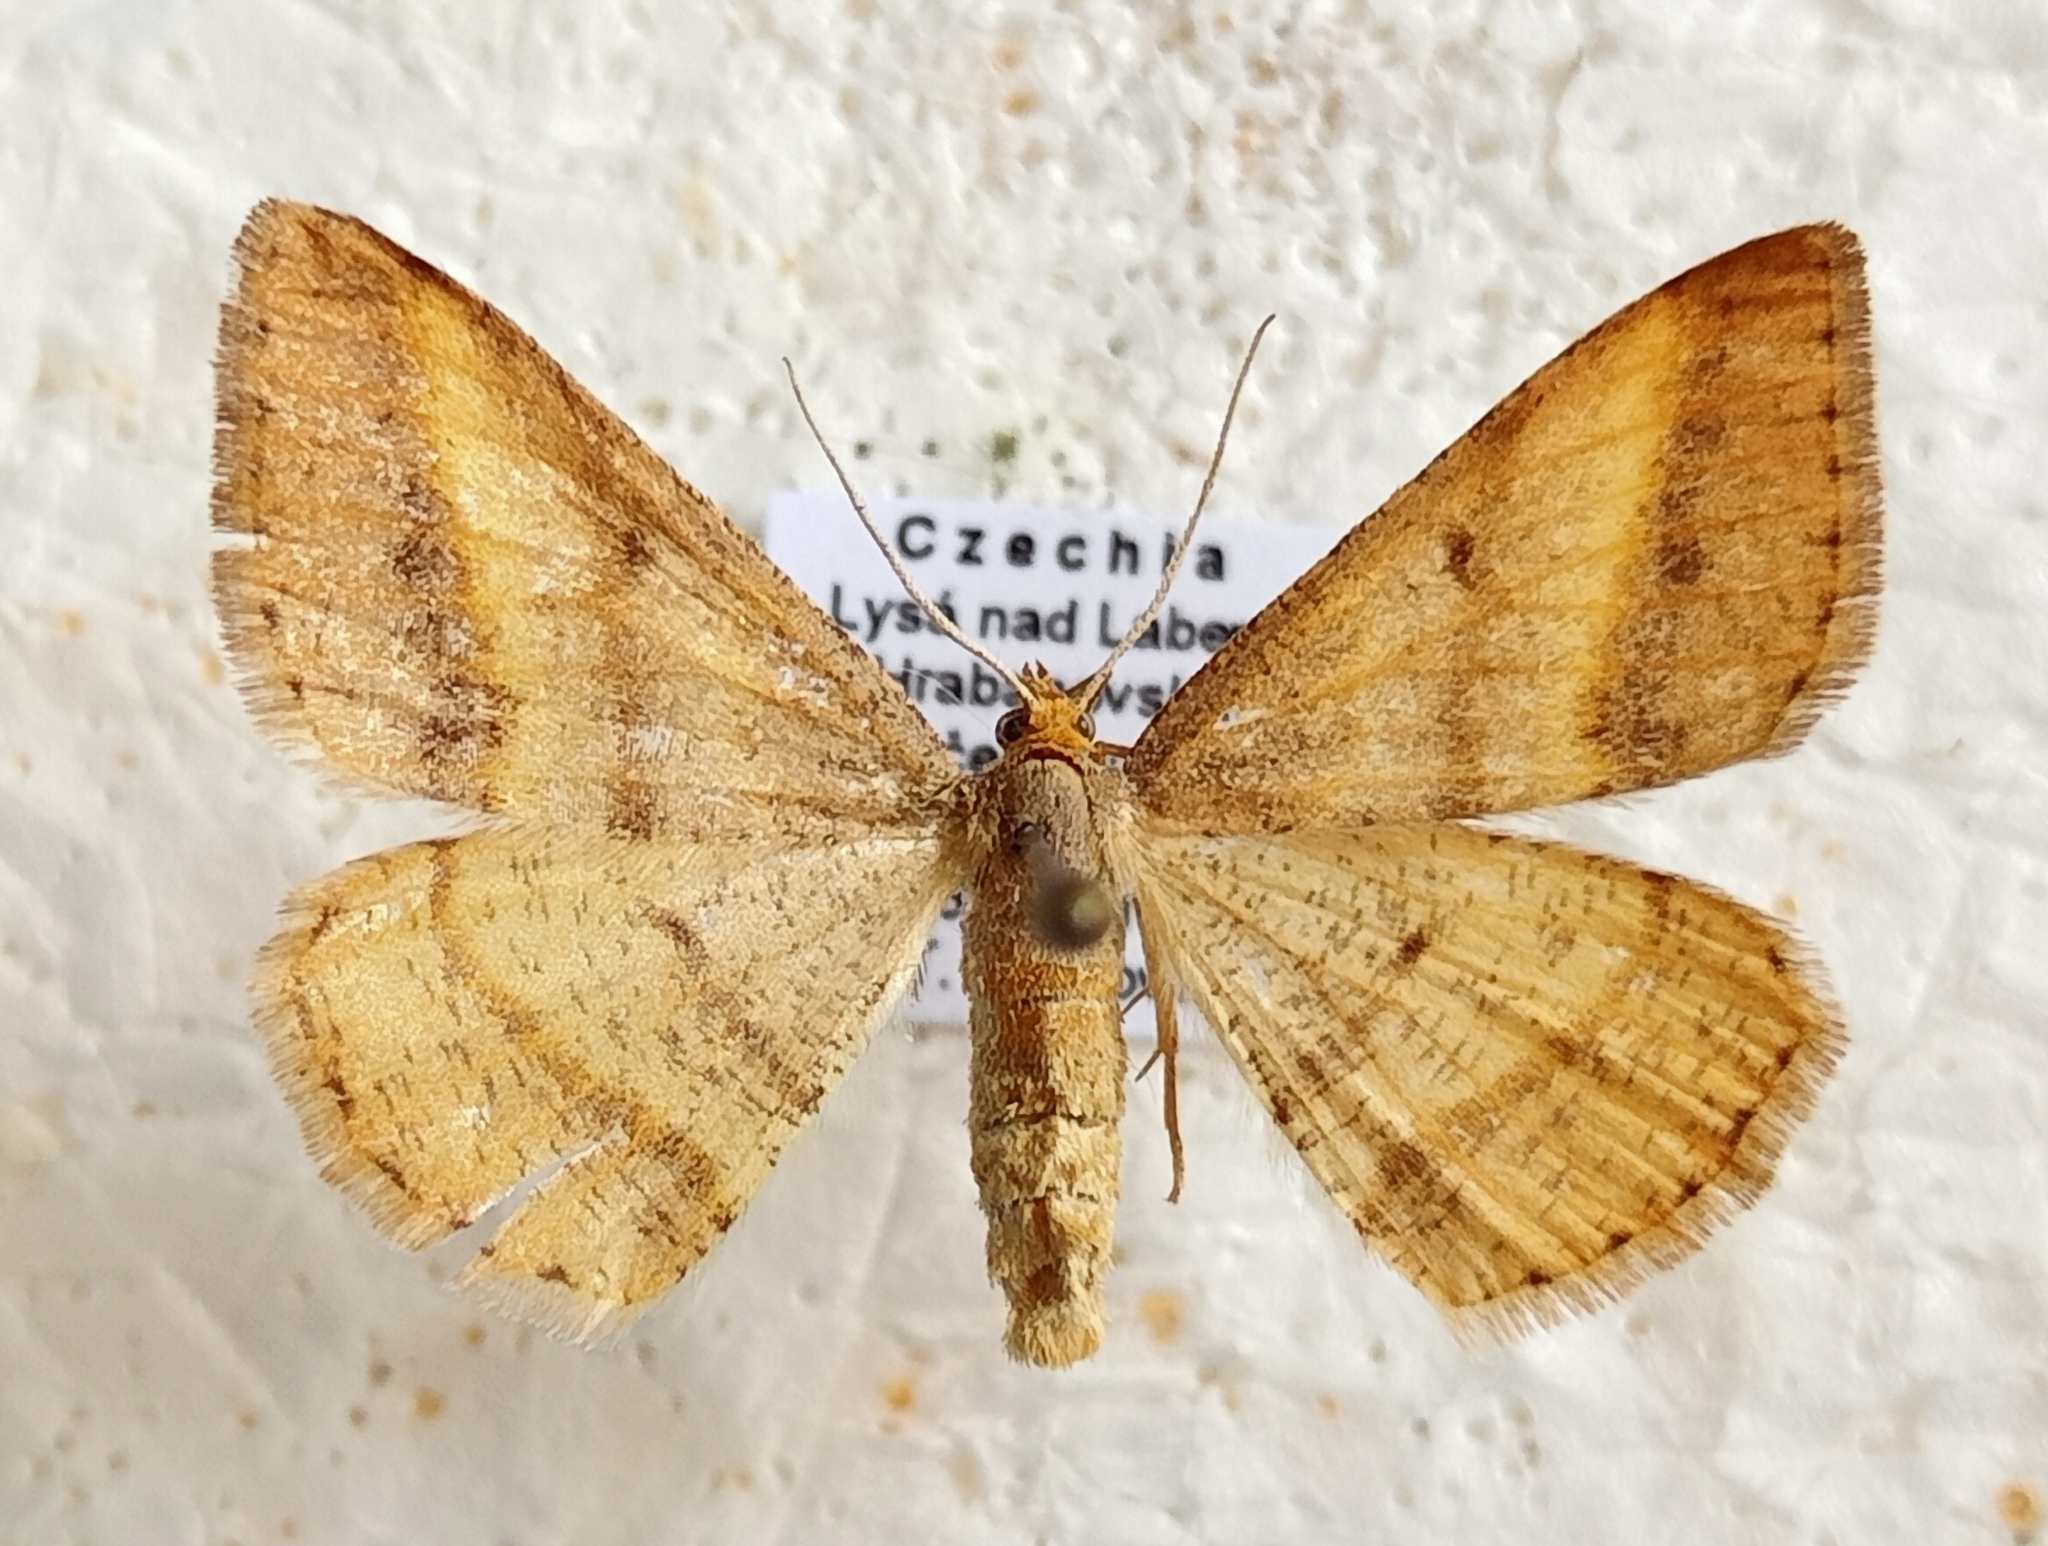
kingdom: Animalia
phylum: Arthropoda
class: Insecta
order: Lepidoptera
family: Geometridae
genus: Tephrina
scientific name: Tephrina arenacearia
